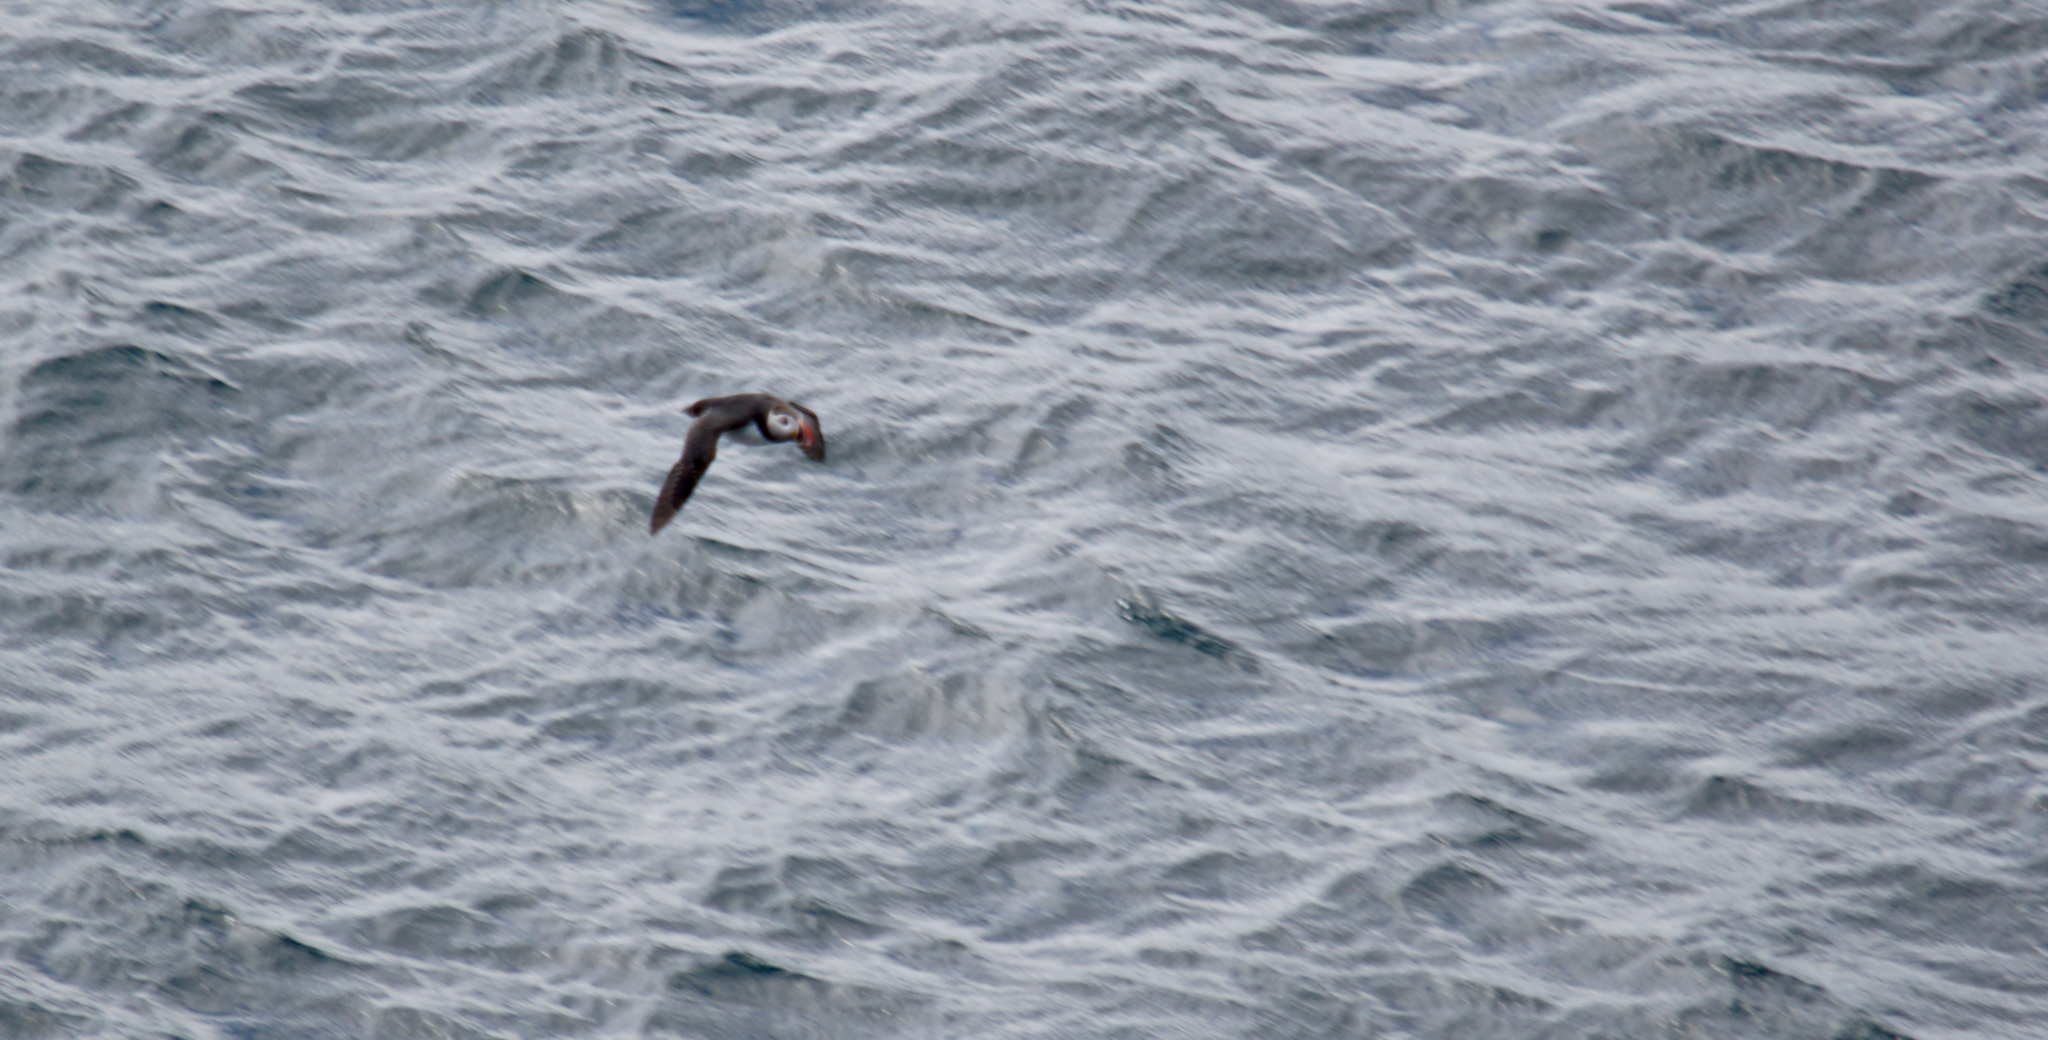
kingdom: Animalia
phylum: Chordata
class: Aves
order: Charadriiformes
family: Alcidae
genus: Fratercula
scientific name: Fratercula arctica
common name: Atlantic puffin
